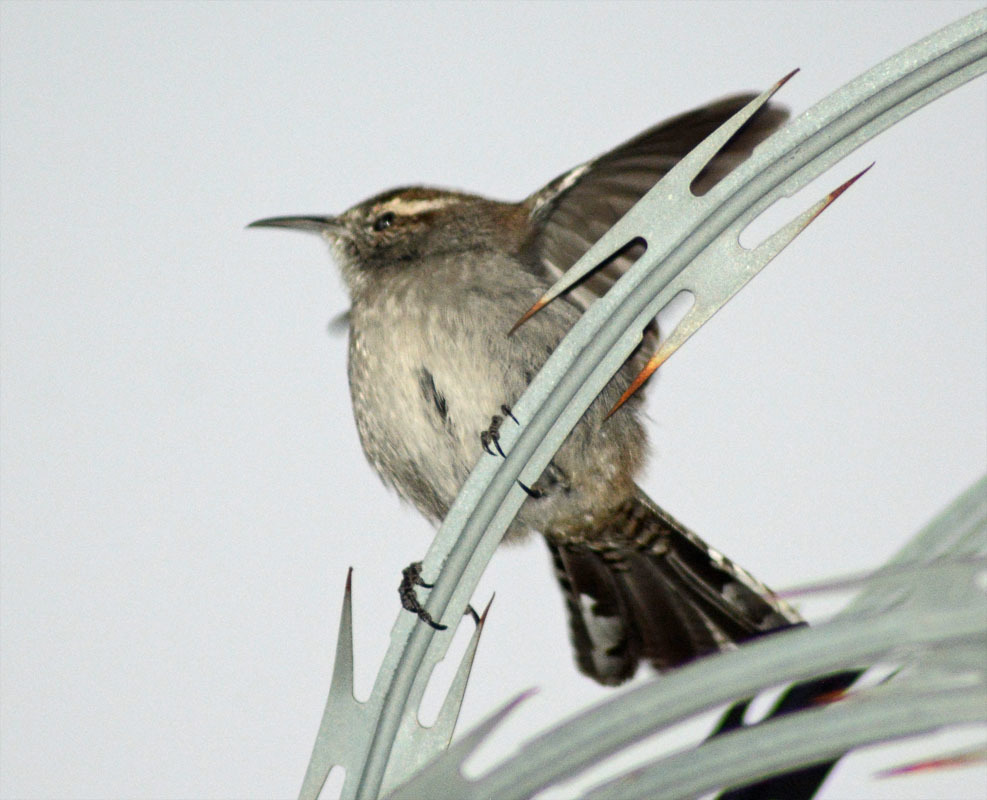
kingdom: Animalia
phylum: Chordata
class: Aves
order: Passeriformes
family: Troglodytidae
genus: Thryomanes
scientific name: Thryomanes bewickii
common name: Bewick's wren
